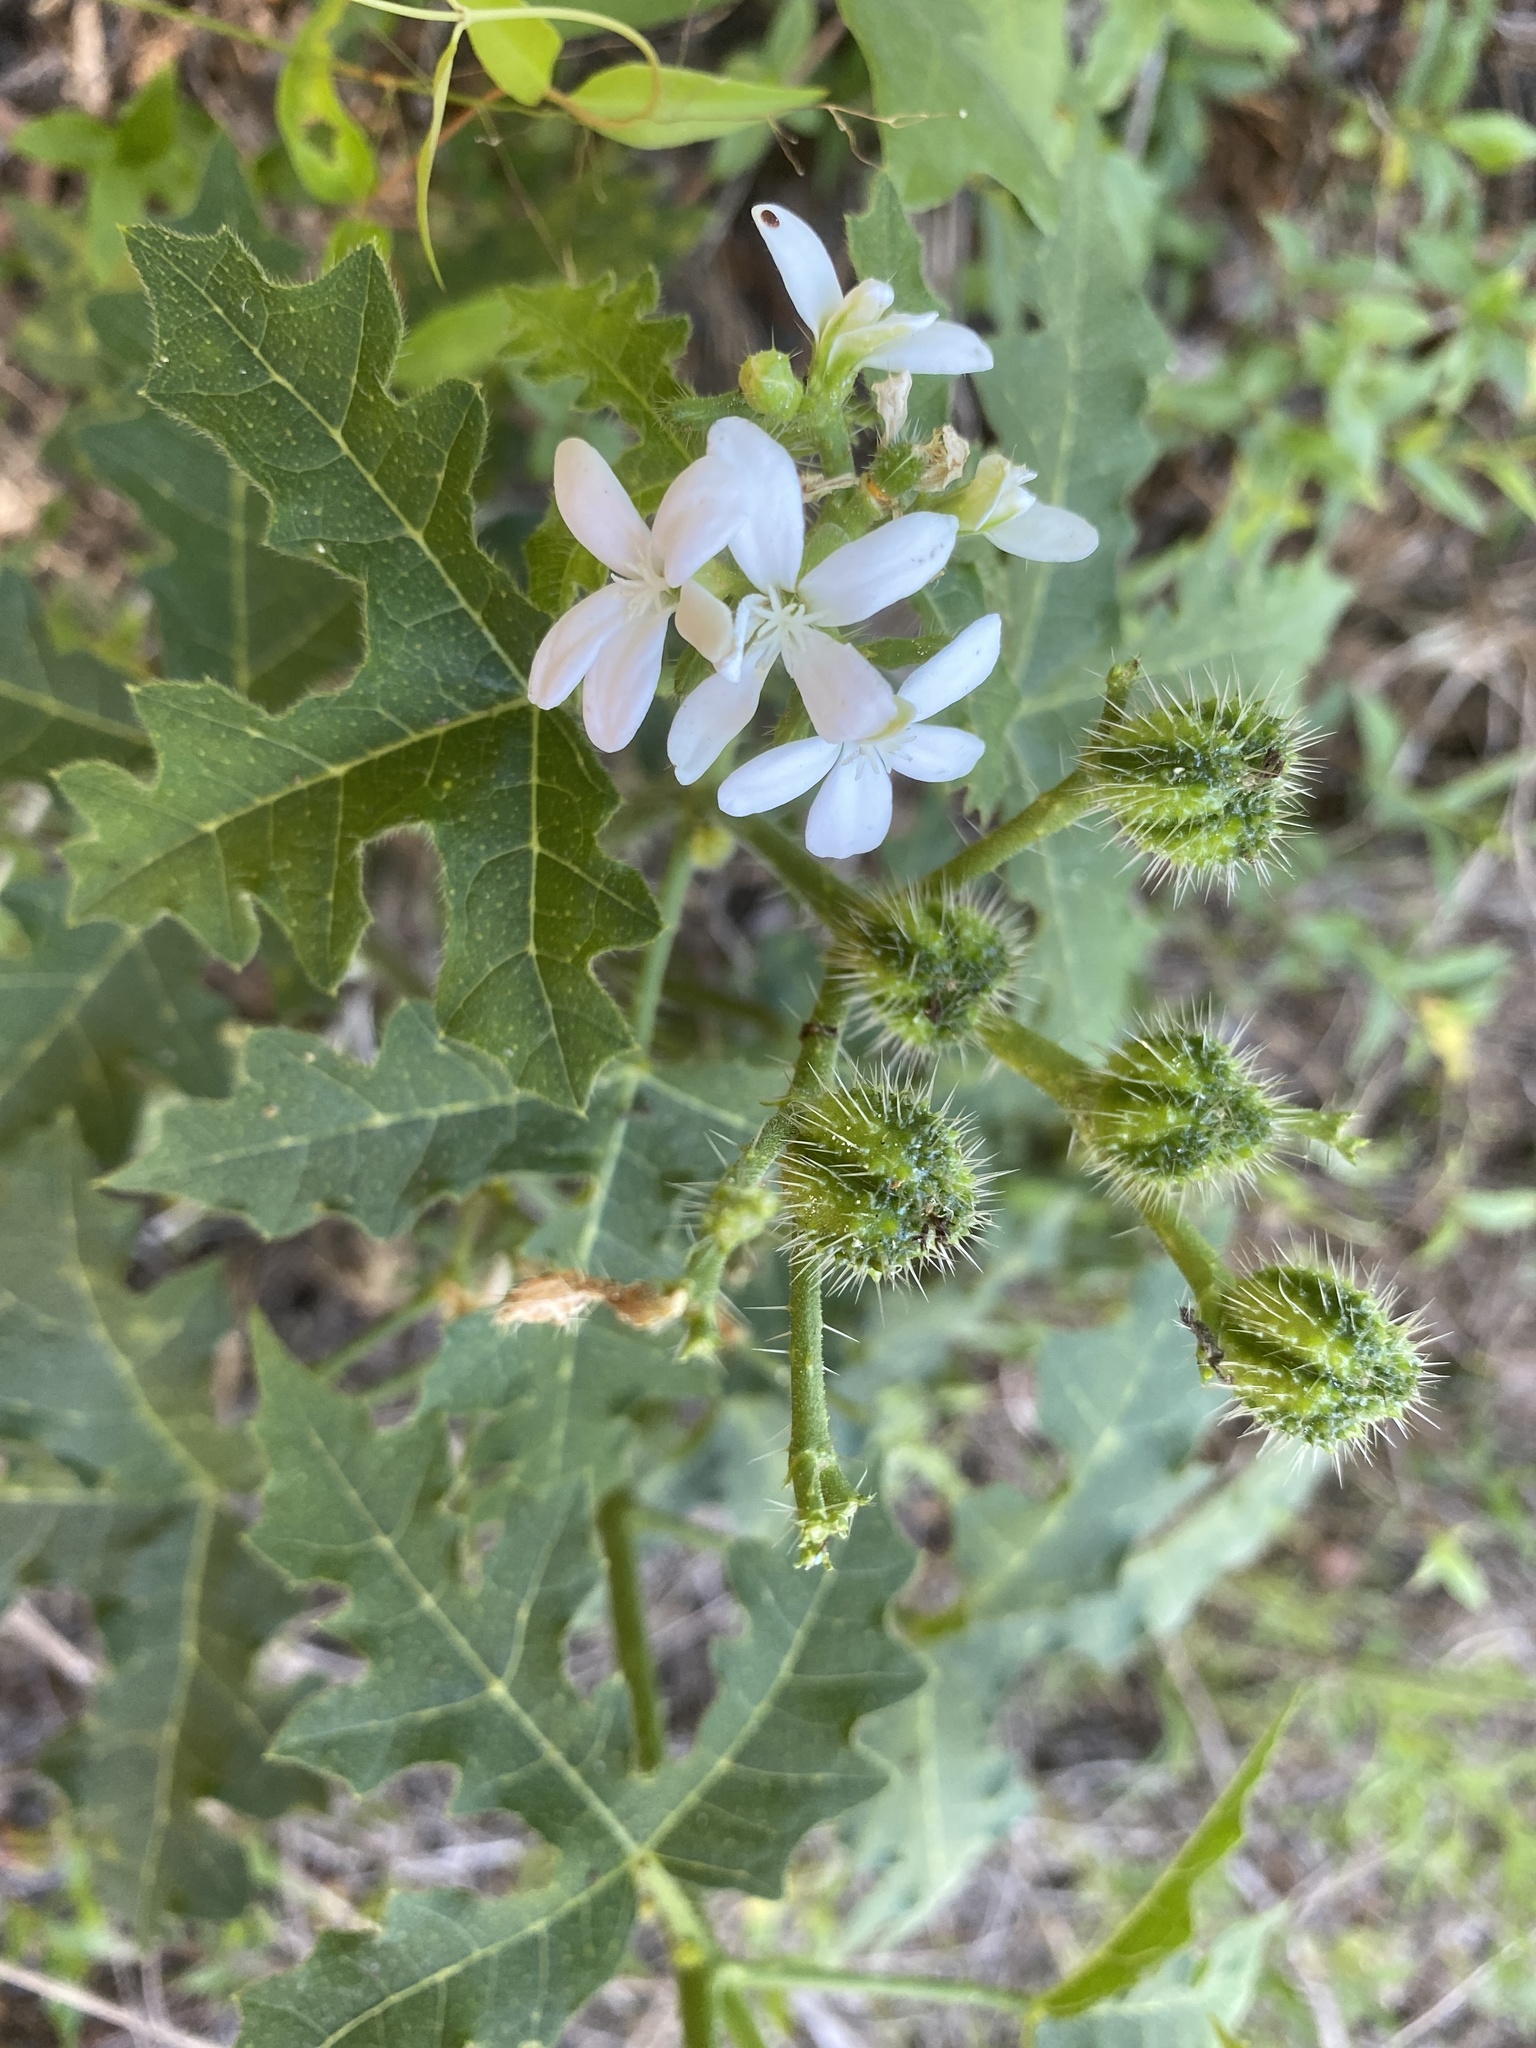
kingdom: Plantae
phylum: Tracheophyta
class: Magnoliopsida
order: Malpighiales
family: Euphorbiaceae
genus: Cnidoscolus
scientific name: Cnidoscolus stimulosus
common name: Bull-nettle
